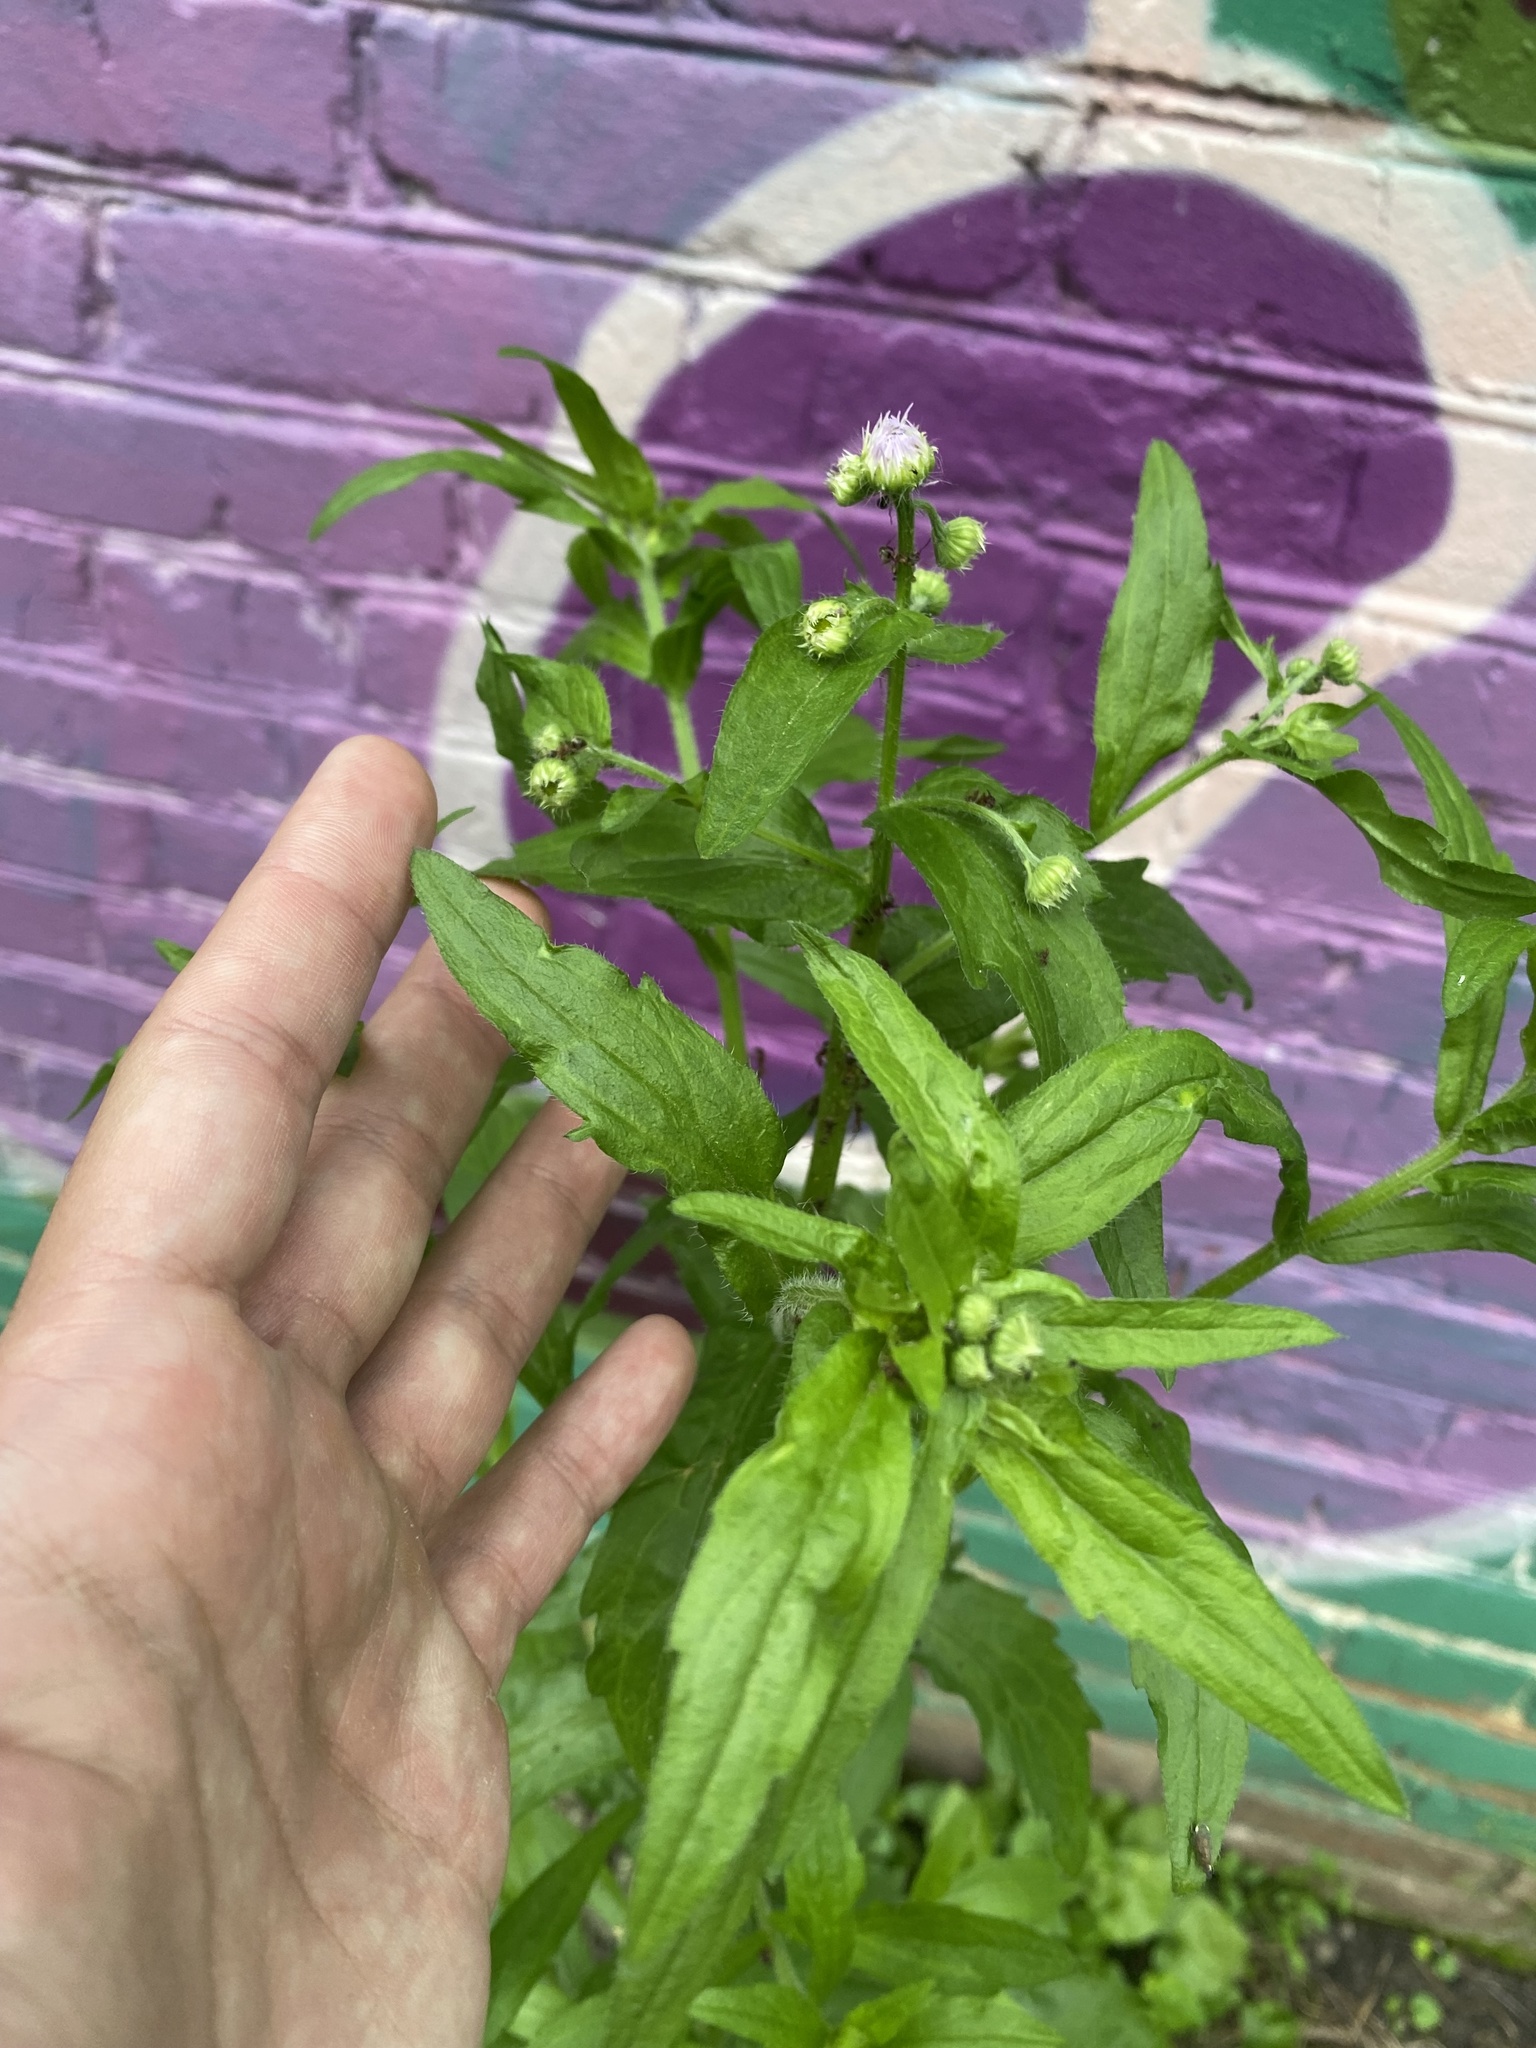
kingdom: Plantae
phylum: Tracheophyta
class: Magnoliopsida
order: Asterales
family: Asteraceae
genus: Erigeron
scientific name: Erigeron annuus
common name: Tall fleabane
